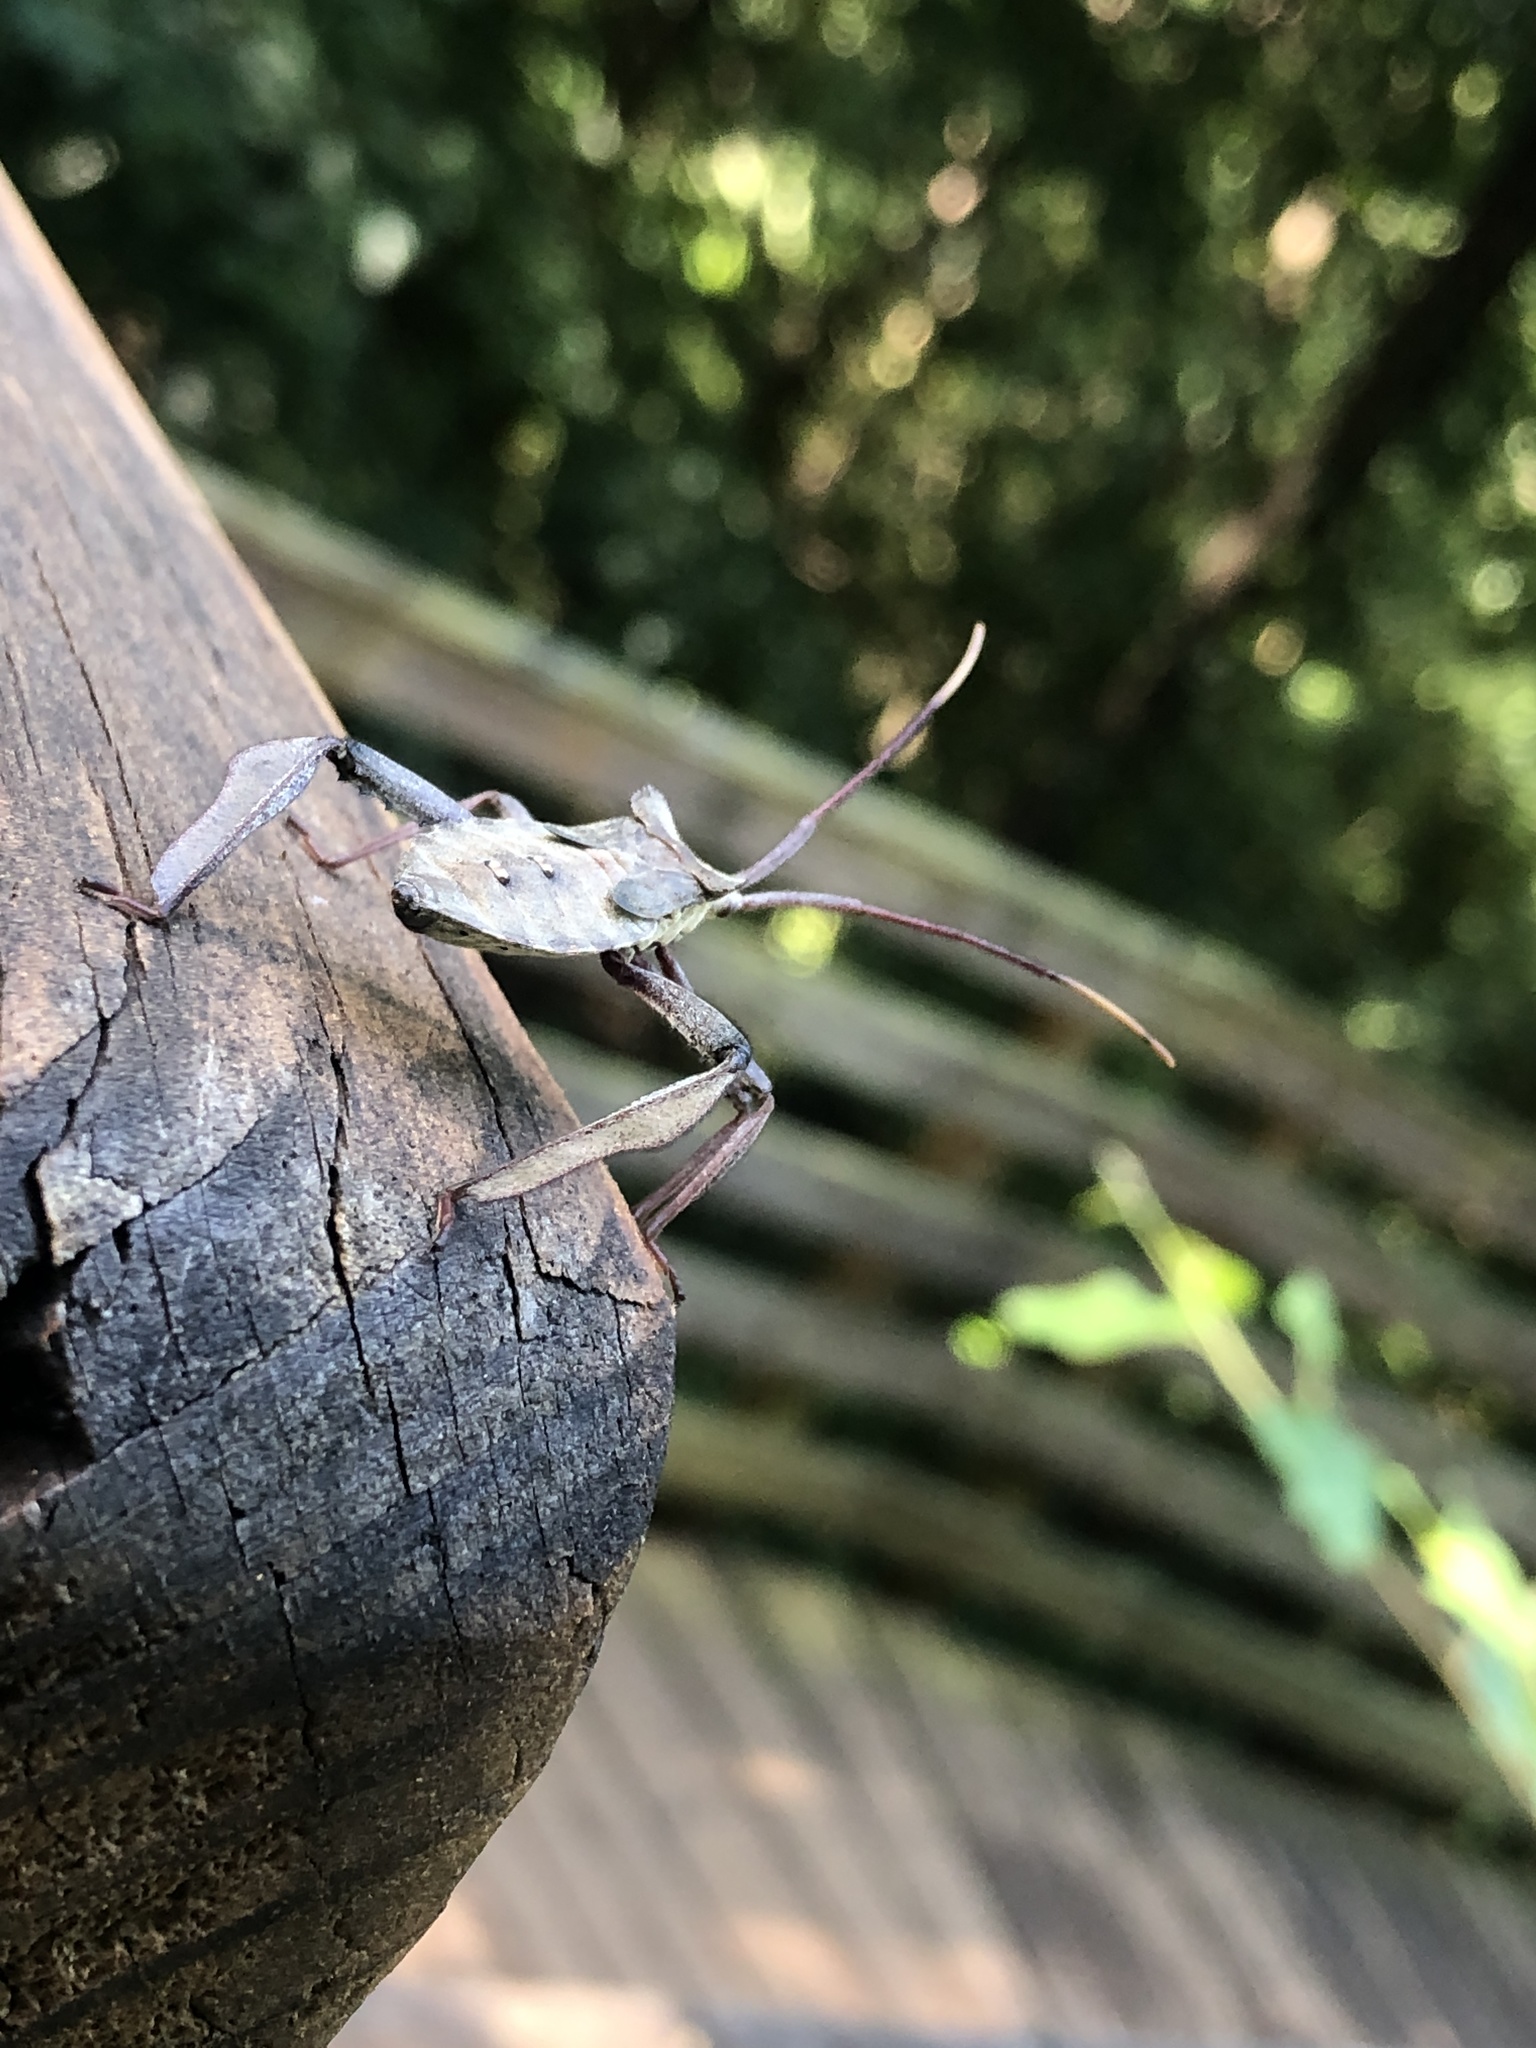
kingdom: Animalia
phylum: Arthropoda
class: Insecta
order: Hemiptera
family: Coreidae
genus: Acanthocephala
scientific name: Acanthocephala declivis
